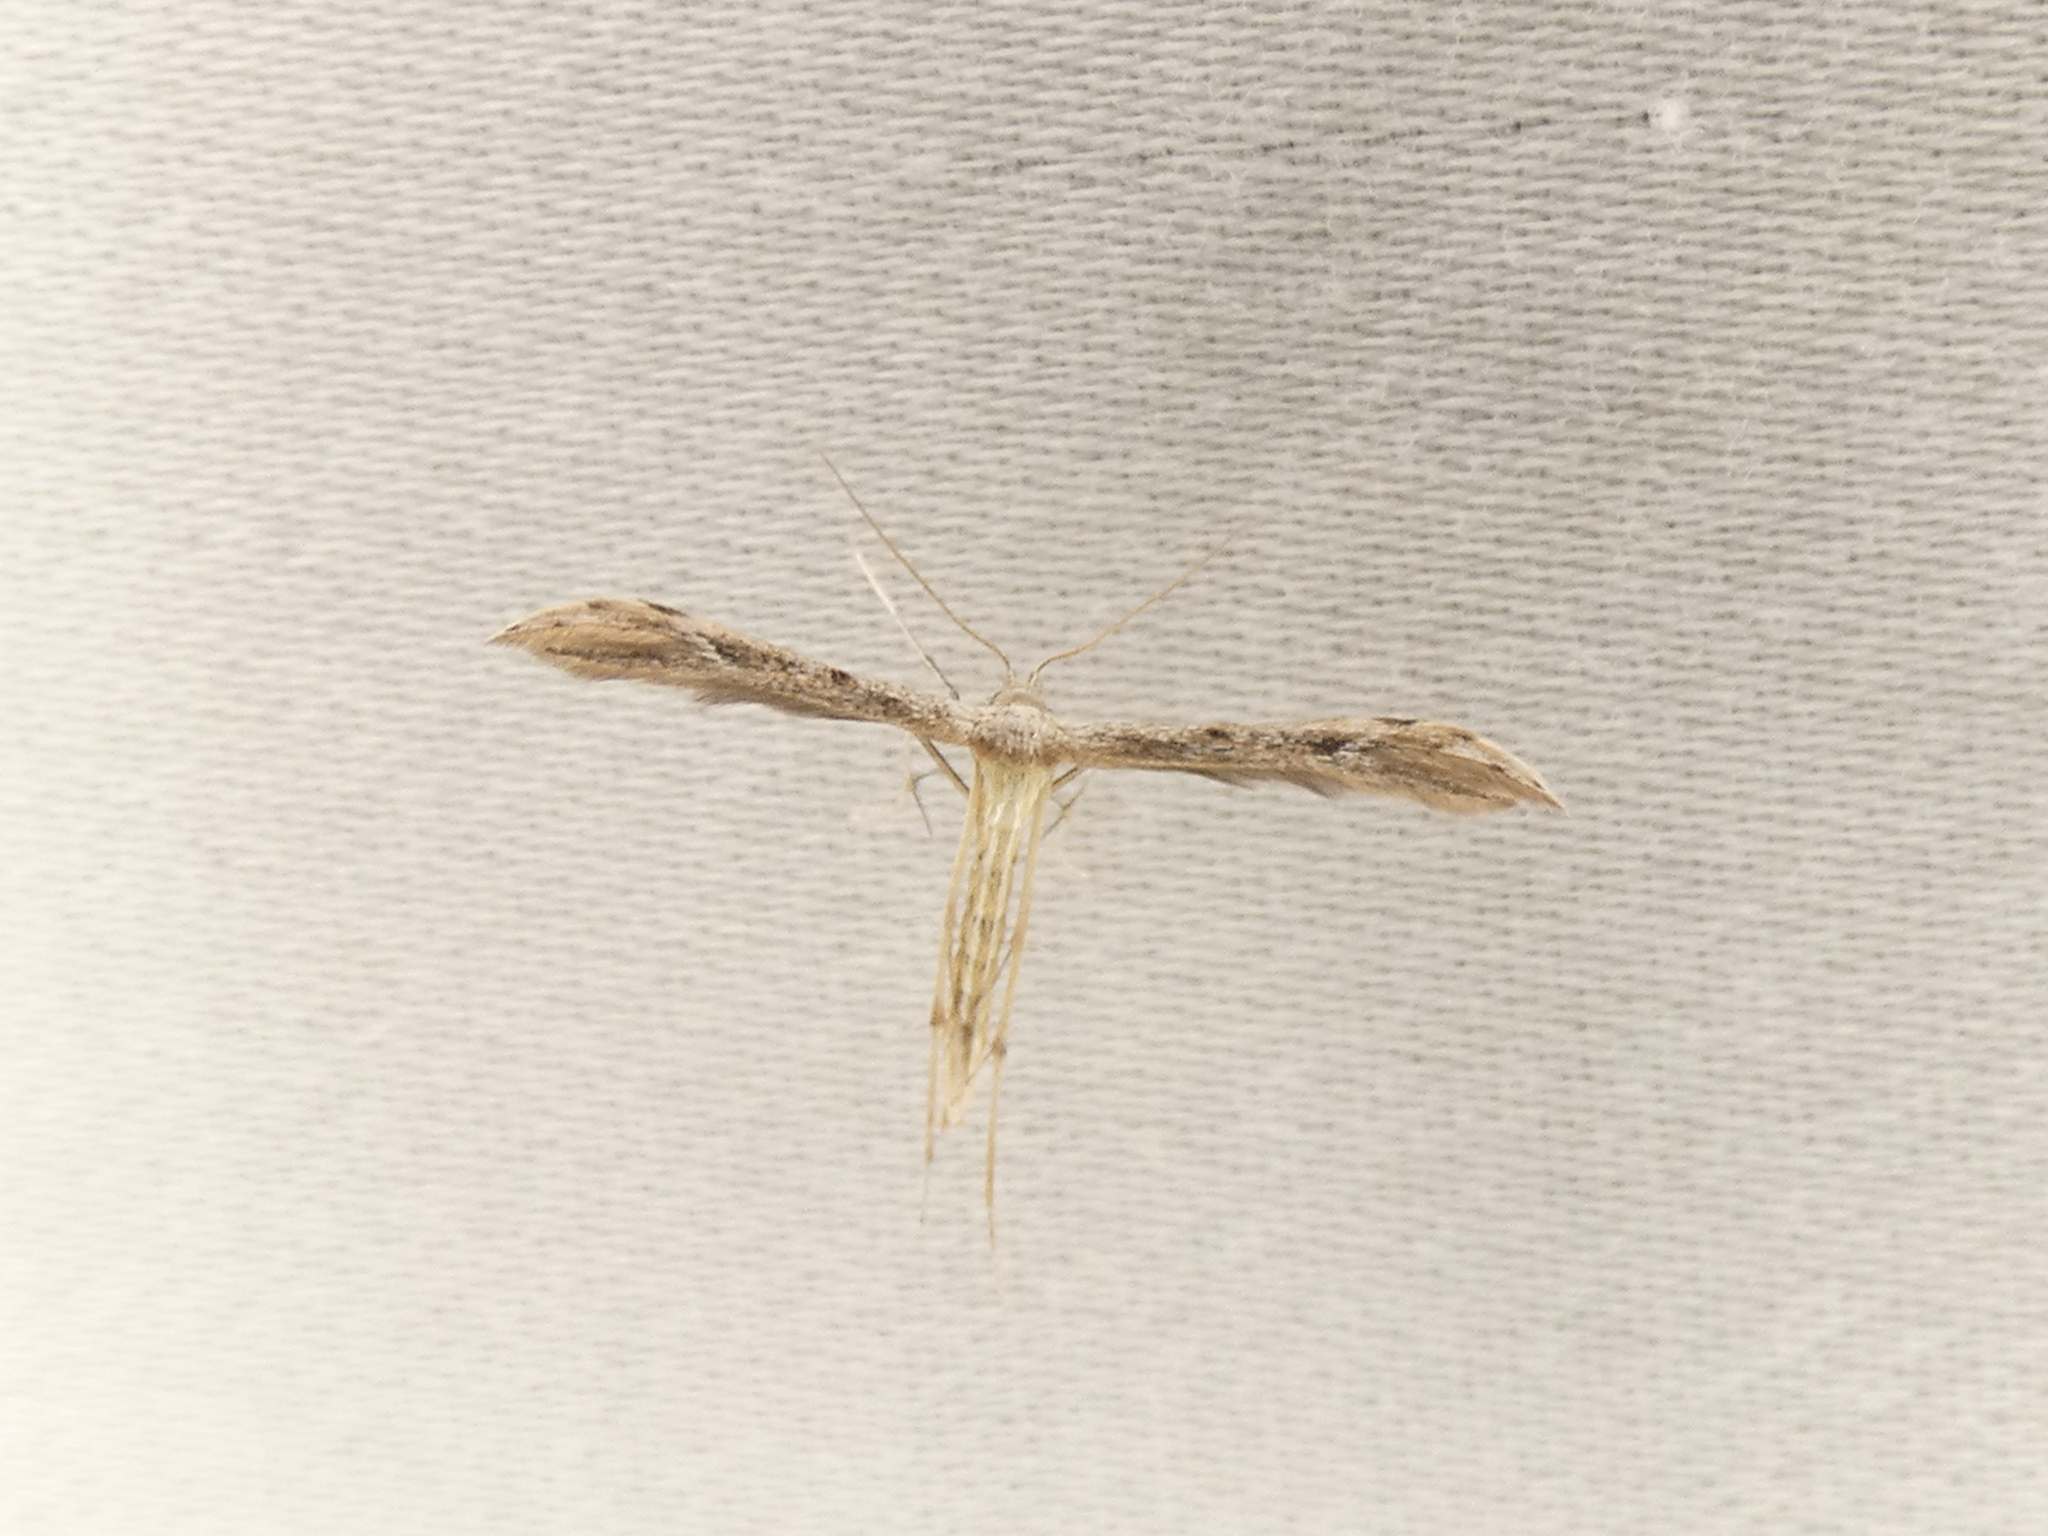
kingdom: Animalia
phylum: Arthropoda
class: Insecta
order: Lepidoptera
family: Pterophoridae
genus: Pselnophorus
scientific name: Pselnophorus belfragei
